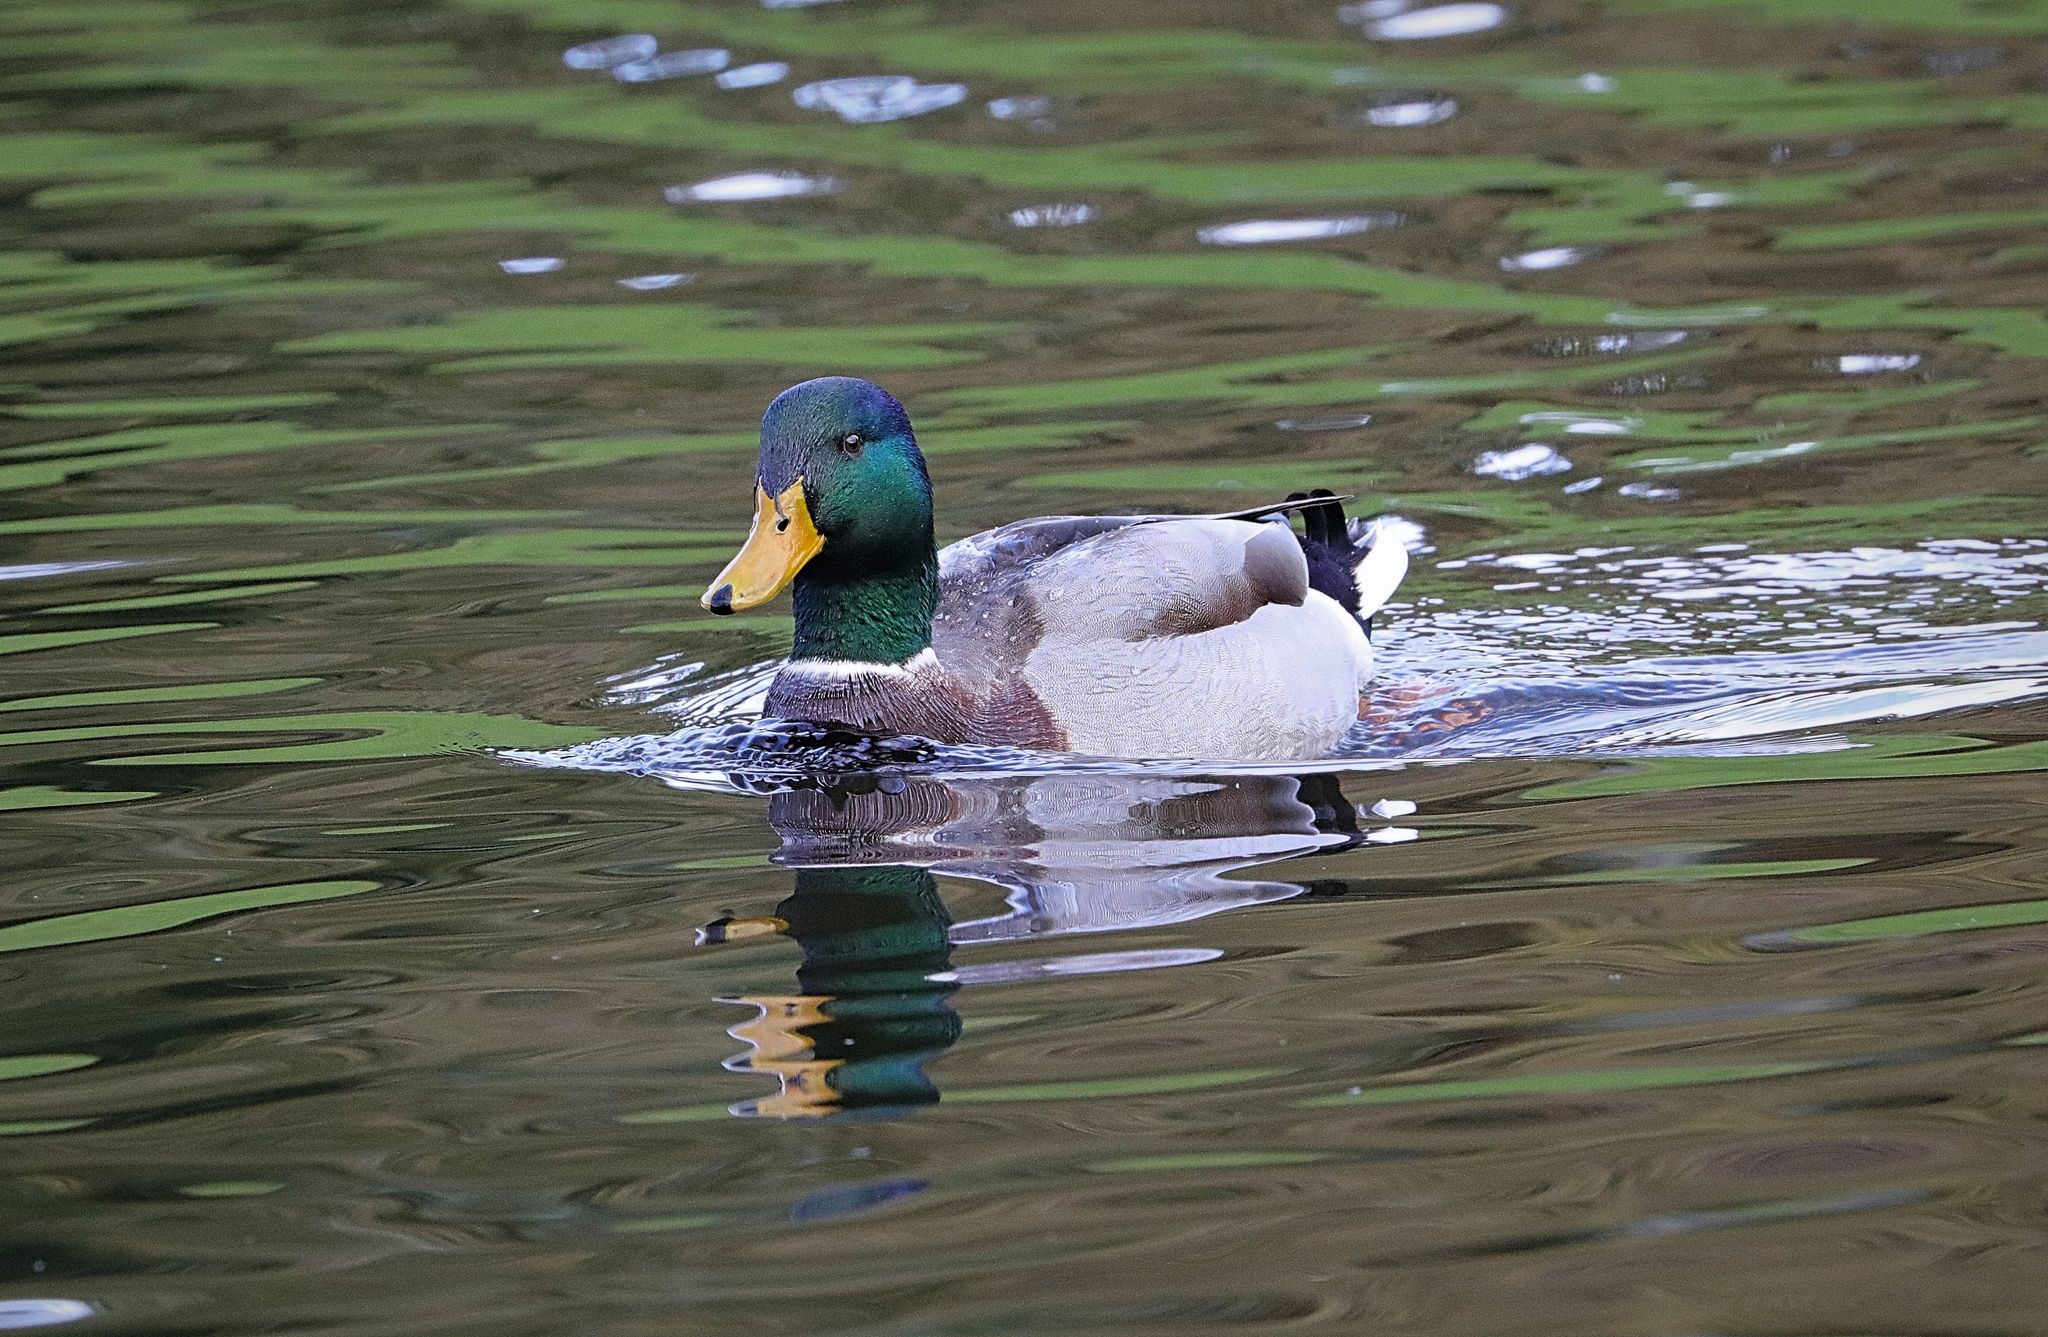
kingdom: Animalia
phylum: Chordata
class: Aves
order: Anseriformes
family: Anatidae
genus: Anas
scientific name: Anas platyrhynchos
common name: Mallard
